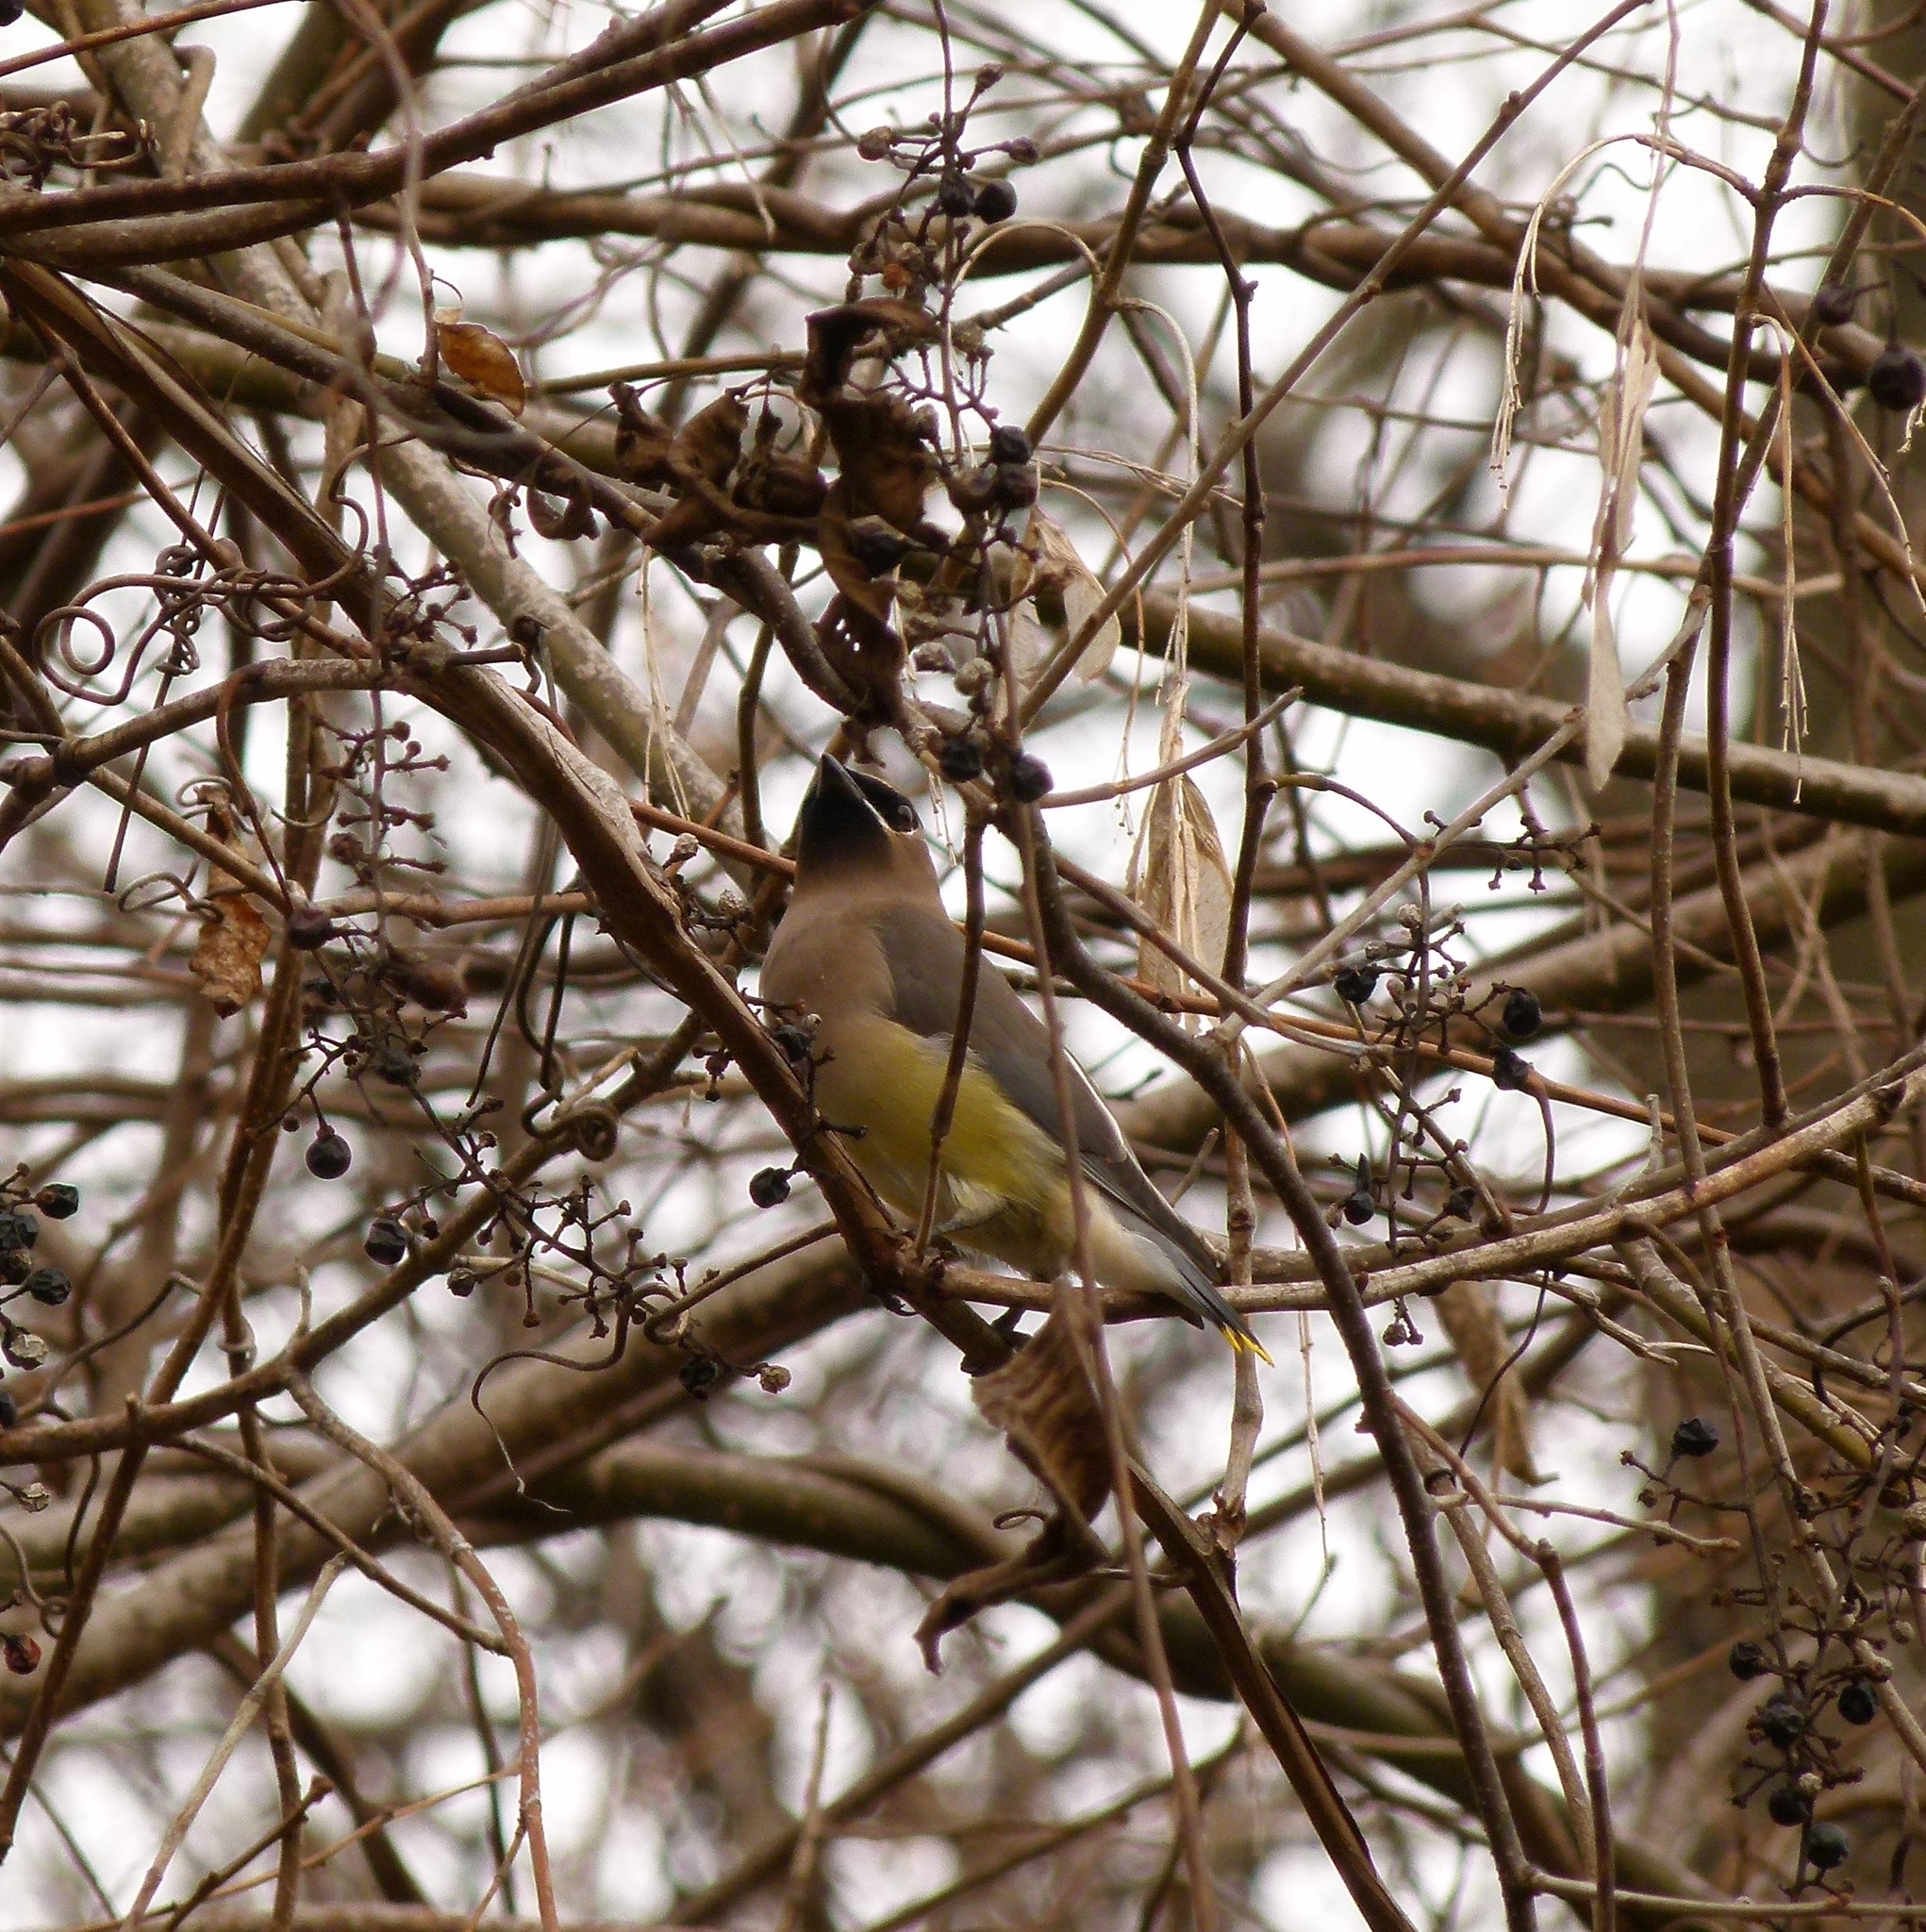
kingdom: Animalia
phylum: Chordata
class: Aves
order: Passeriformes
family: Bombycillidae
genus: Bombycilla
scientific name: Bombycilla cedrorum
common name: Cedar waxwing
